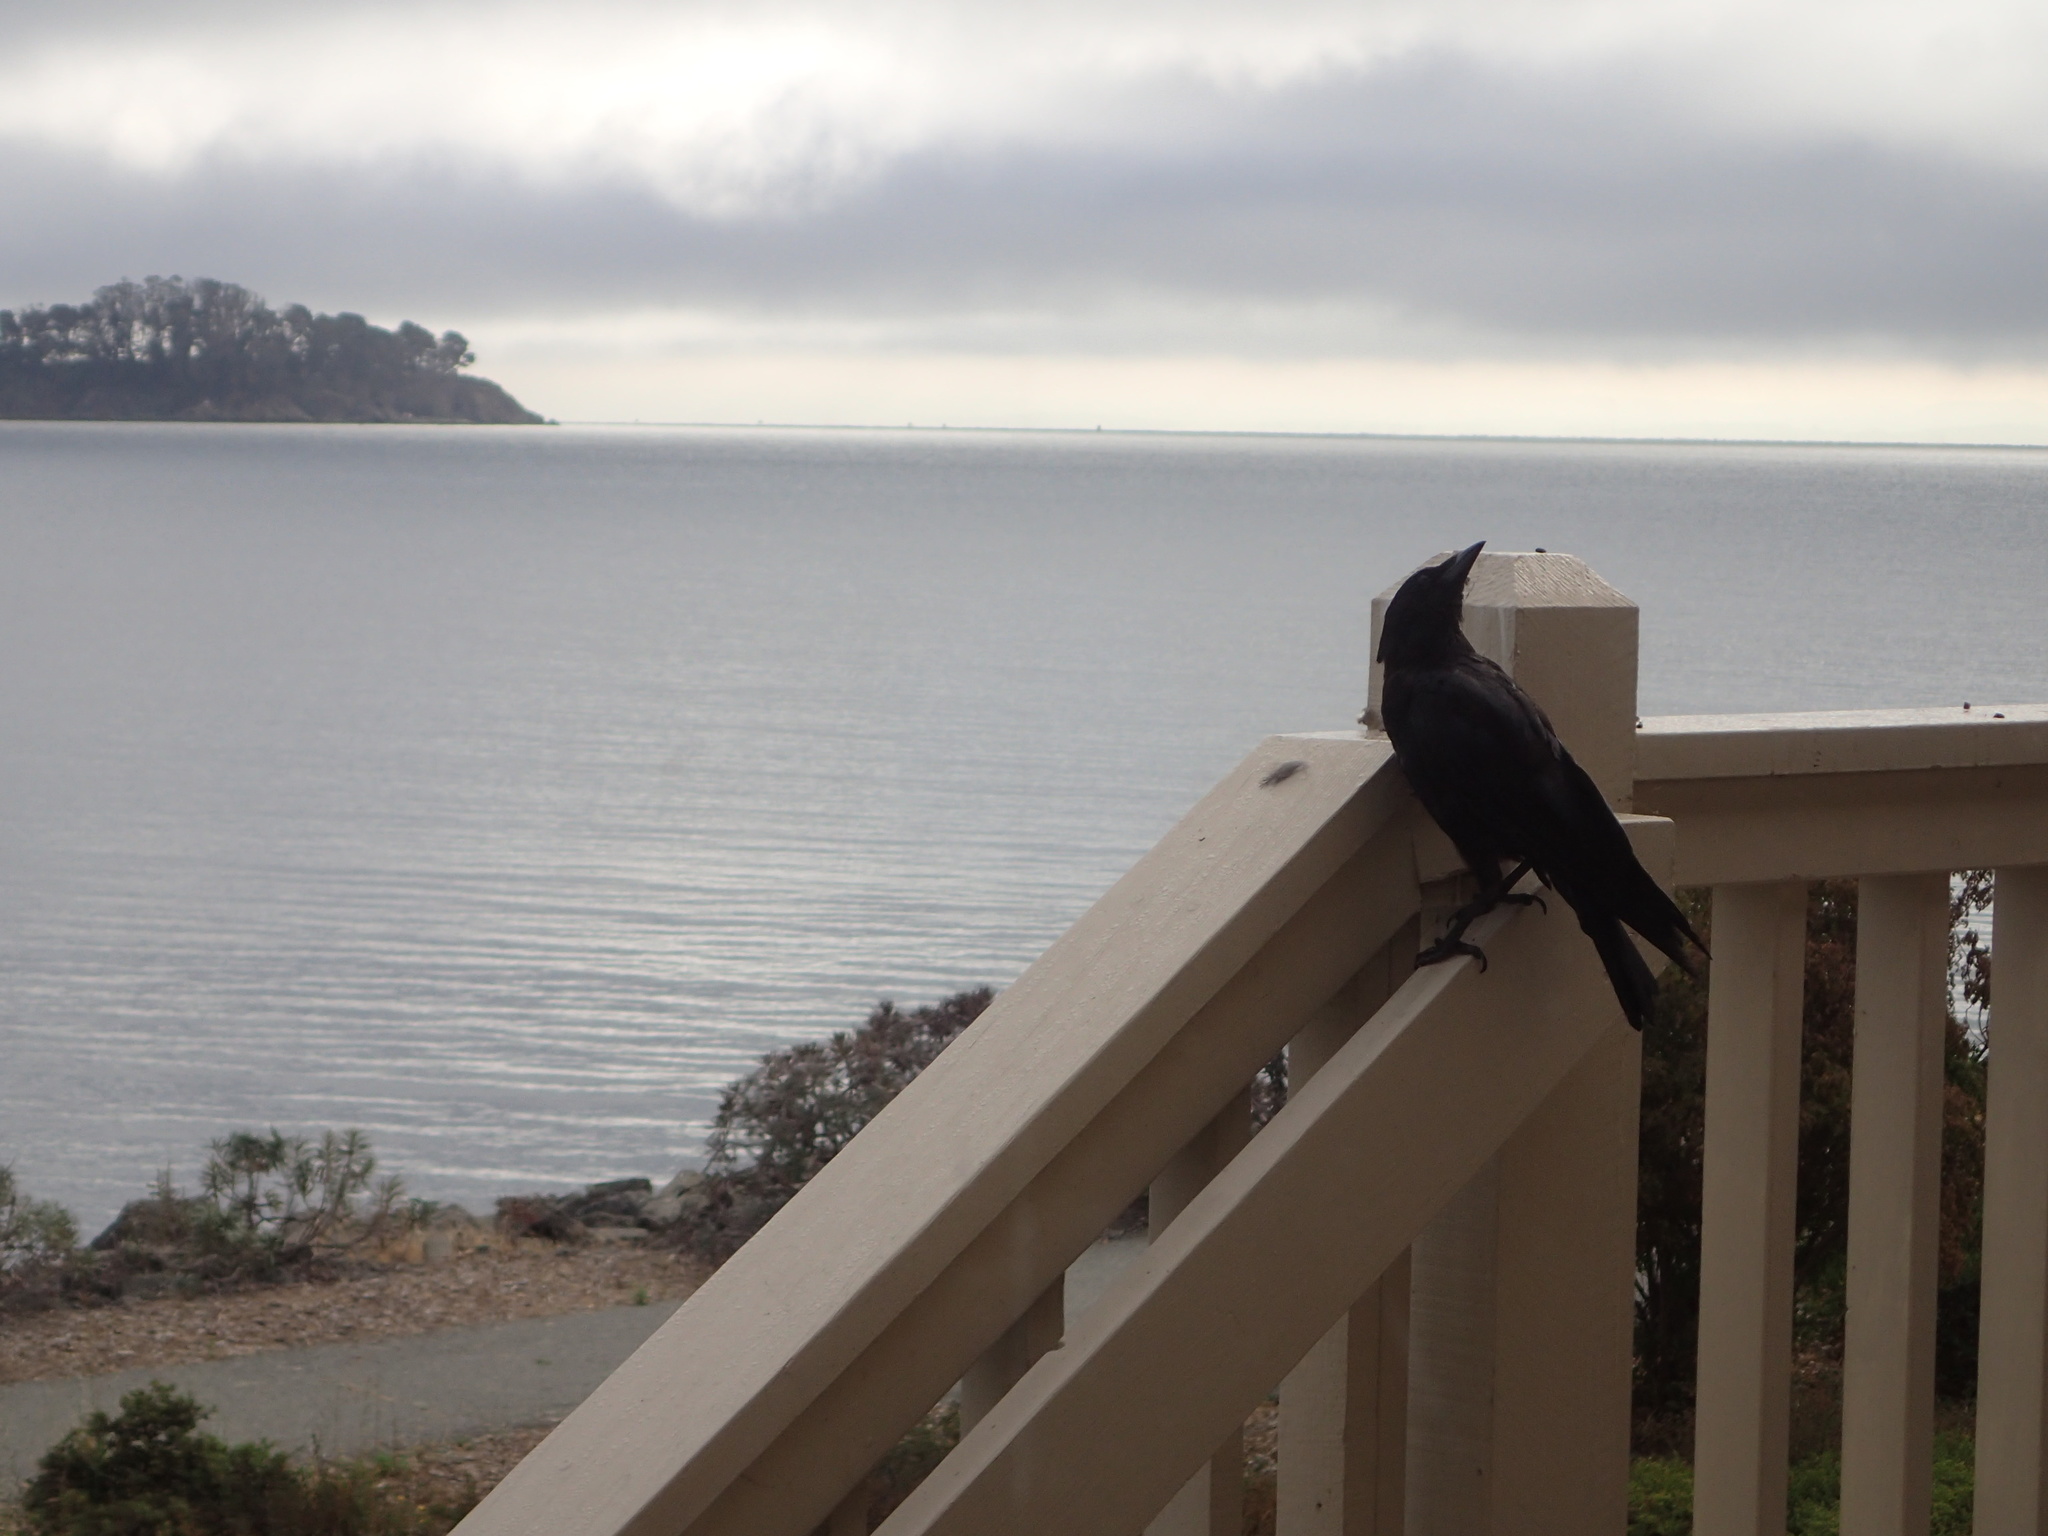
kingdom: Animalia
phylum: Chordata
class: Aves
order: Passeriformes
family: Corvidae
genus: Corvus
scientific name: Corvus brachyrhynchos
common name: American crow
